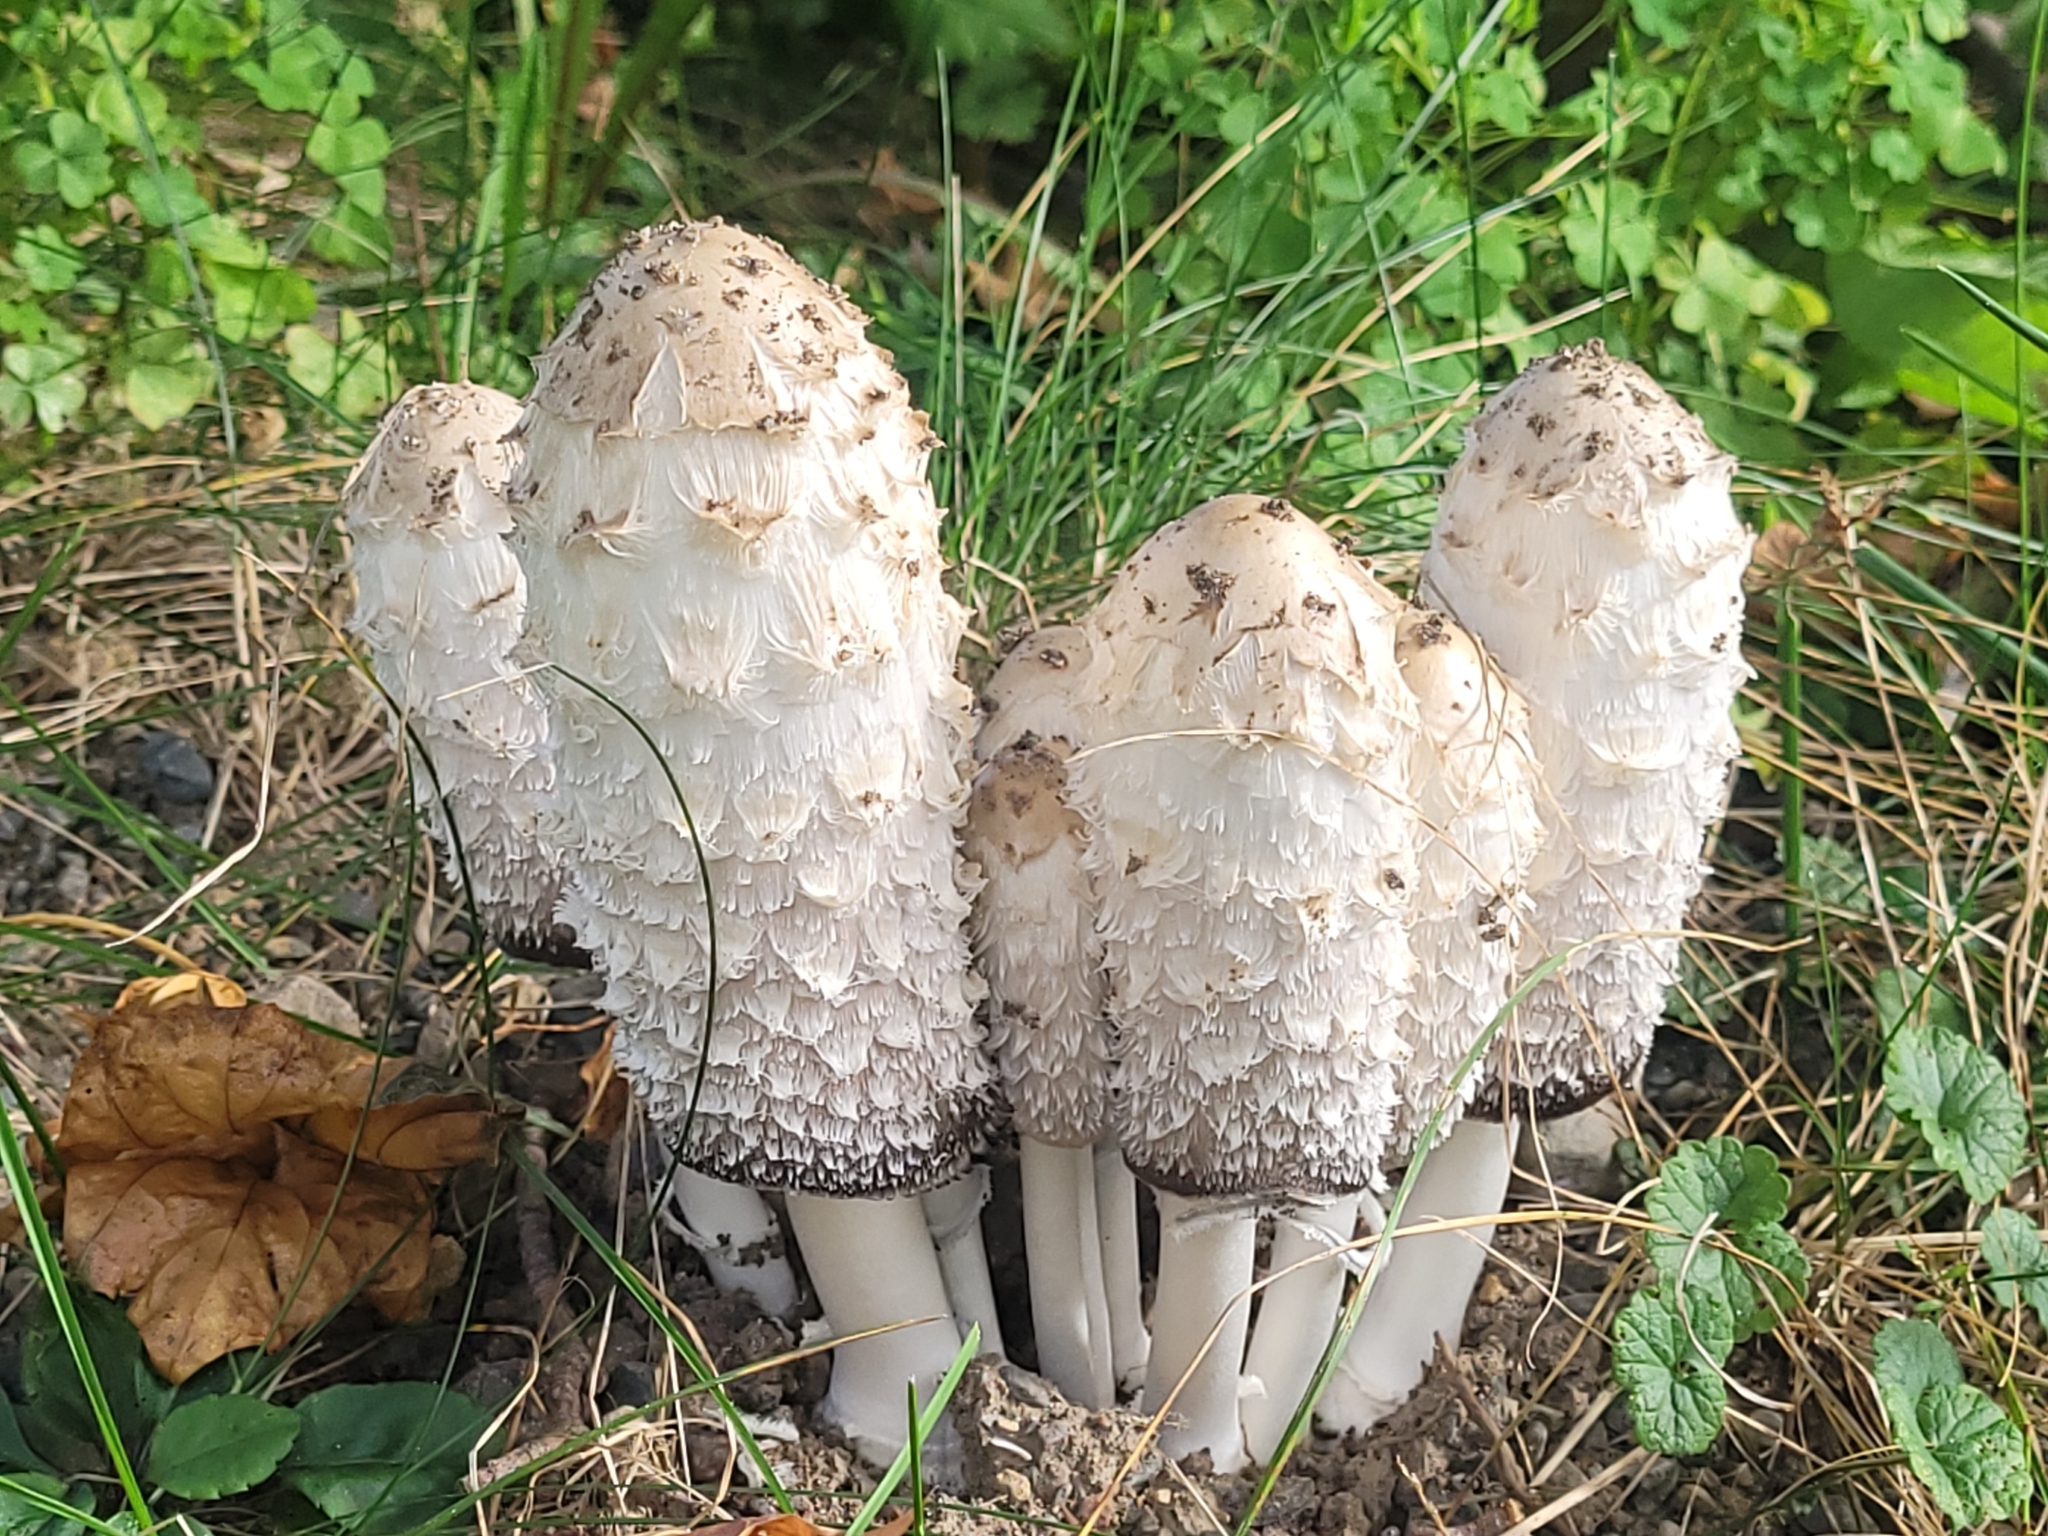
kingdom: Fungi
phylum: Basidiomycota
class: Agaricomycetes
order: Agaricales
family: Agaricaceae
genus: Coprinus
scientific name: Coprinus comatus
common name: Lawyer's wig
